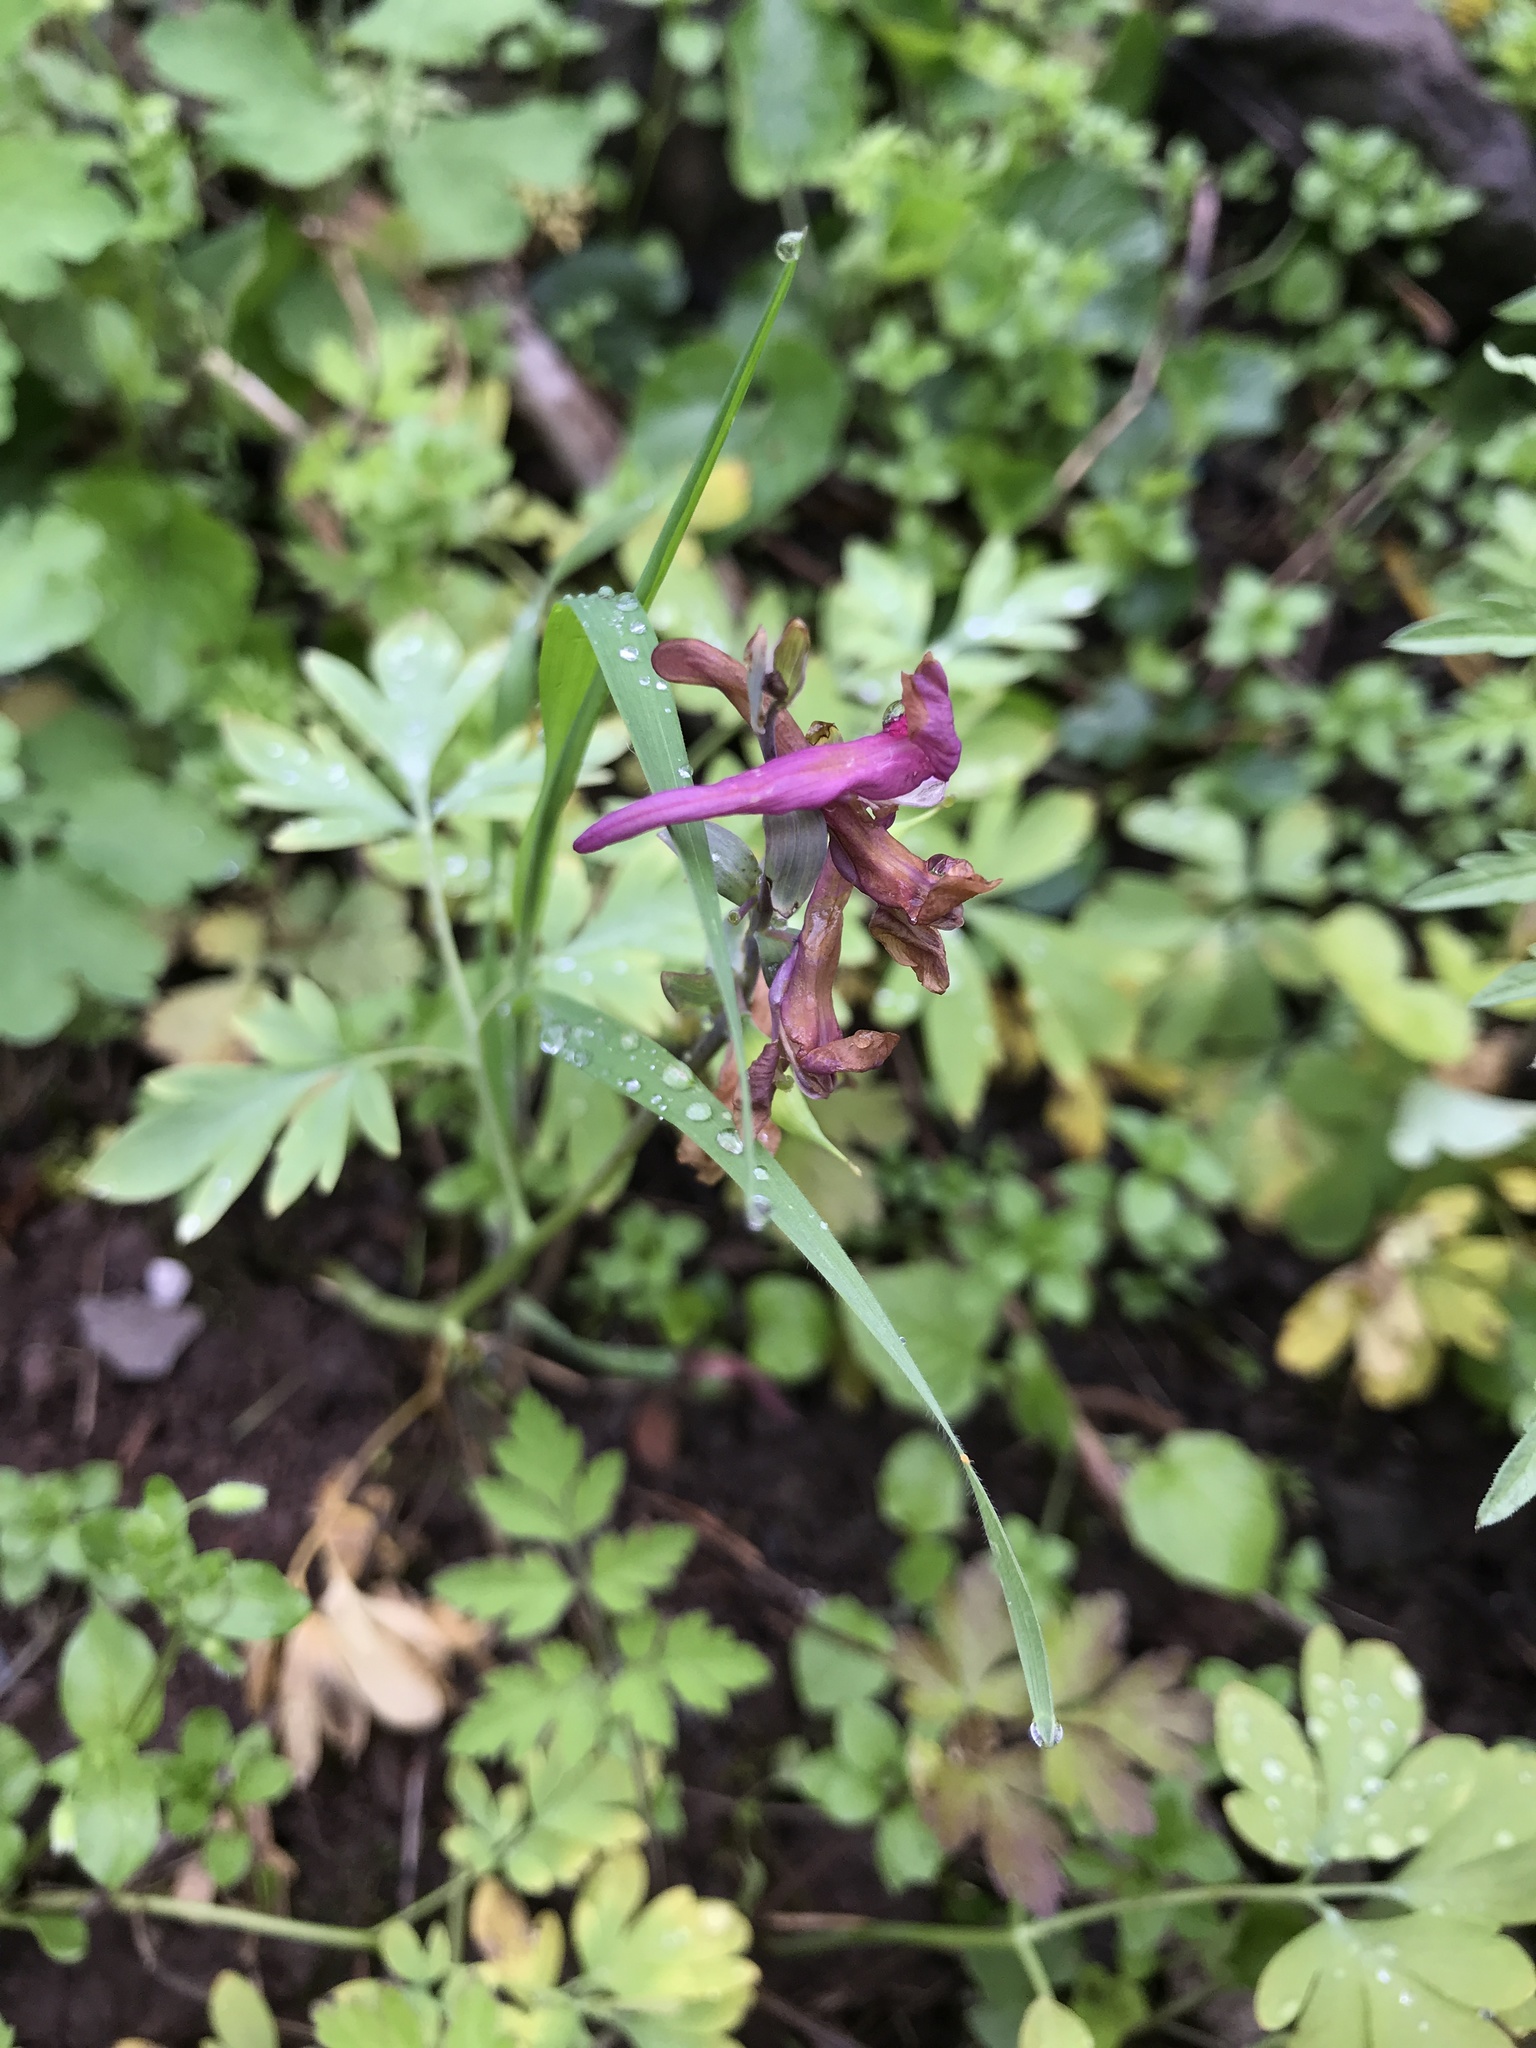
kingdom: Plantae
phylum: Tracheophyta
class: Magnoliopsida
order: Ranunculales
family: Papaveraceae
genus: Corydalis
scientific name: Corydalis cava
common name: Hollowroot
